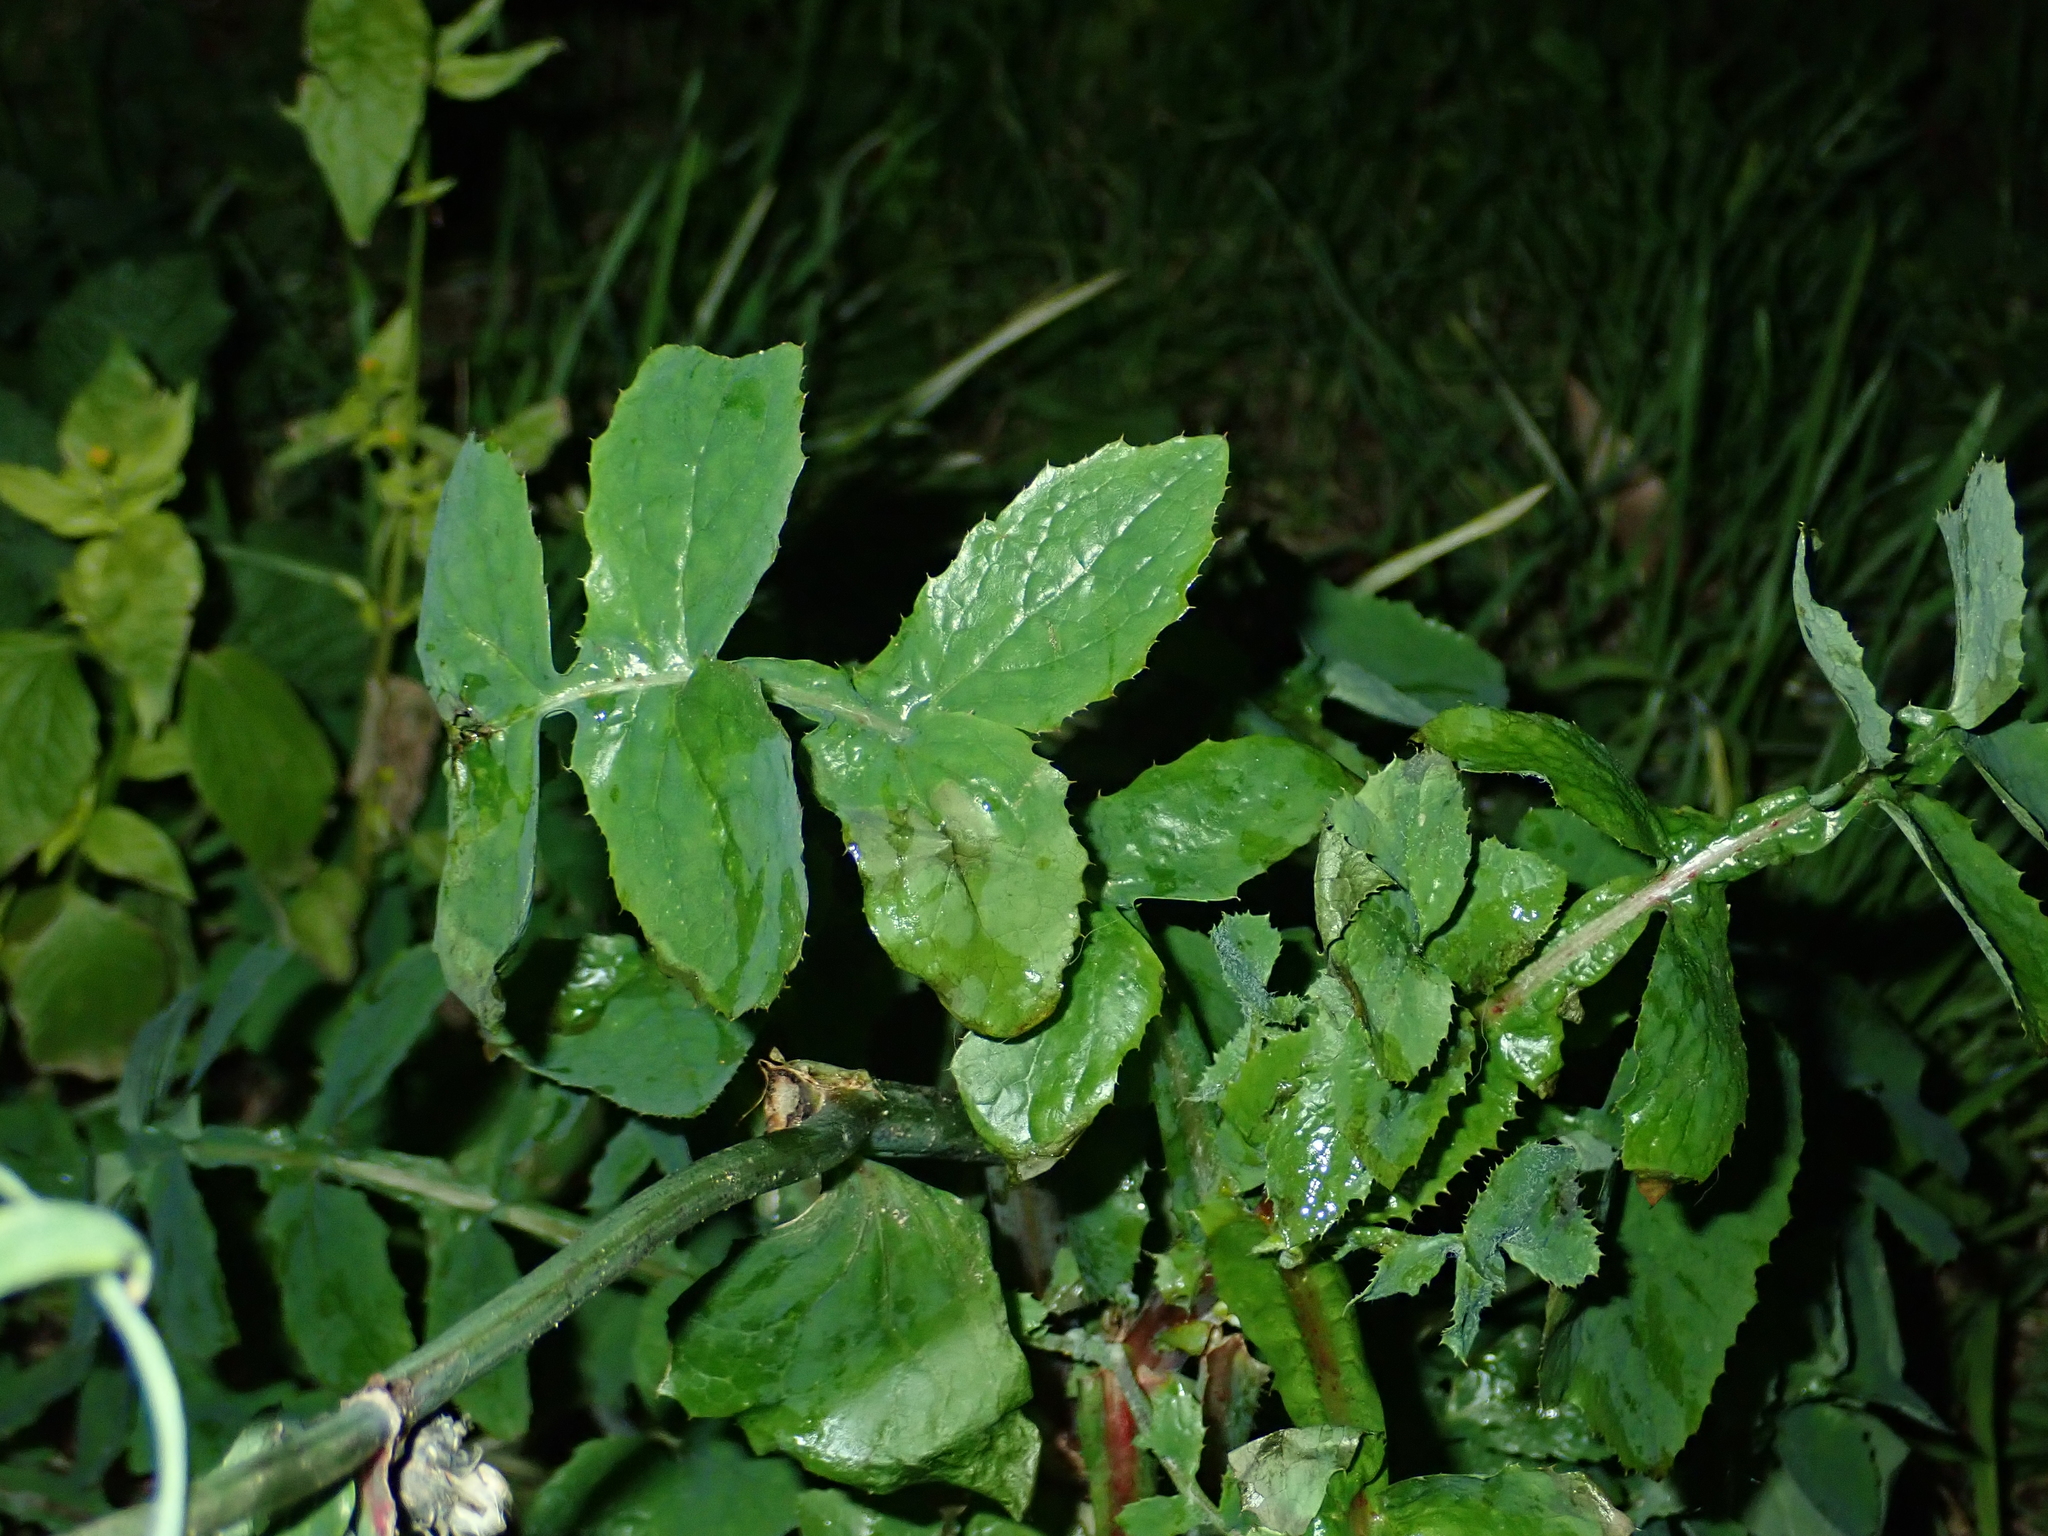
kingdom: Plantae
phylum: Tracheophyta
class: Magnoliopsida
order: Asterales
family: Asteraceae
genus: Sonchus
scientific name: Sonchus oleraceus
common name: Common sowthistle
